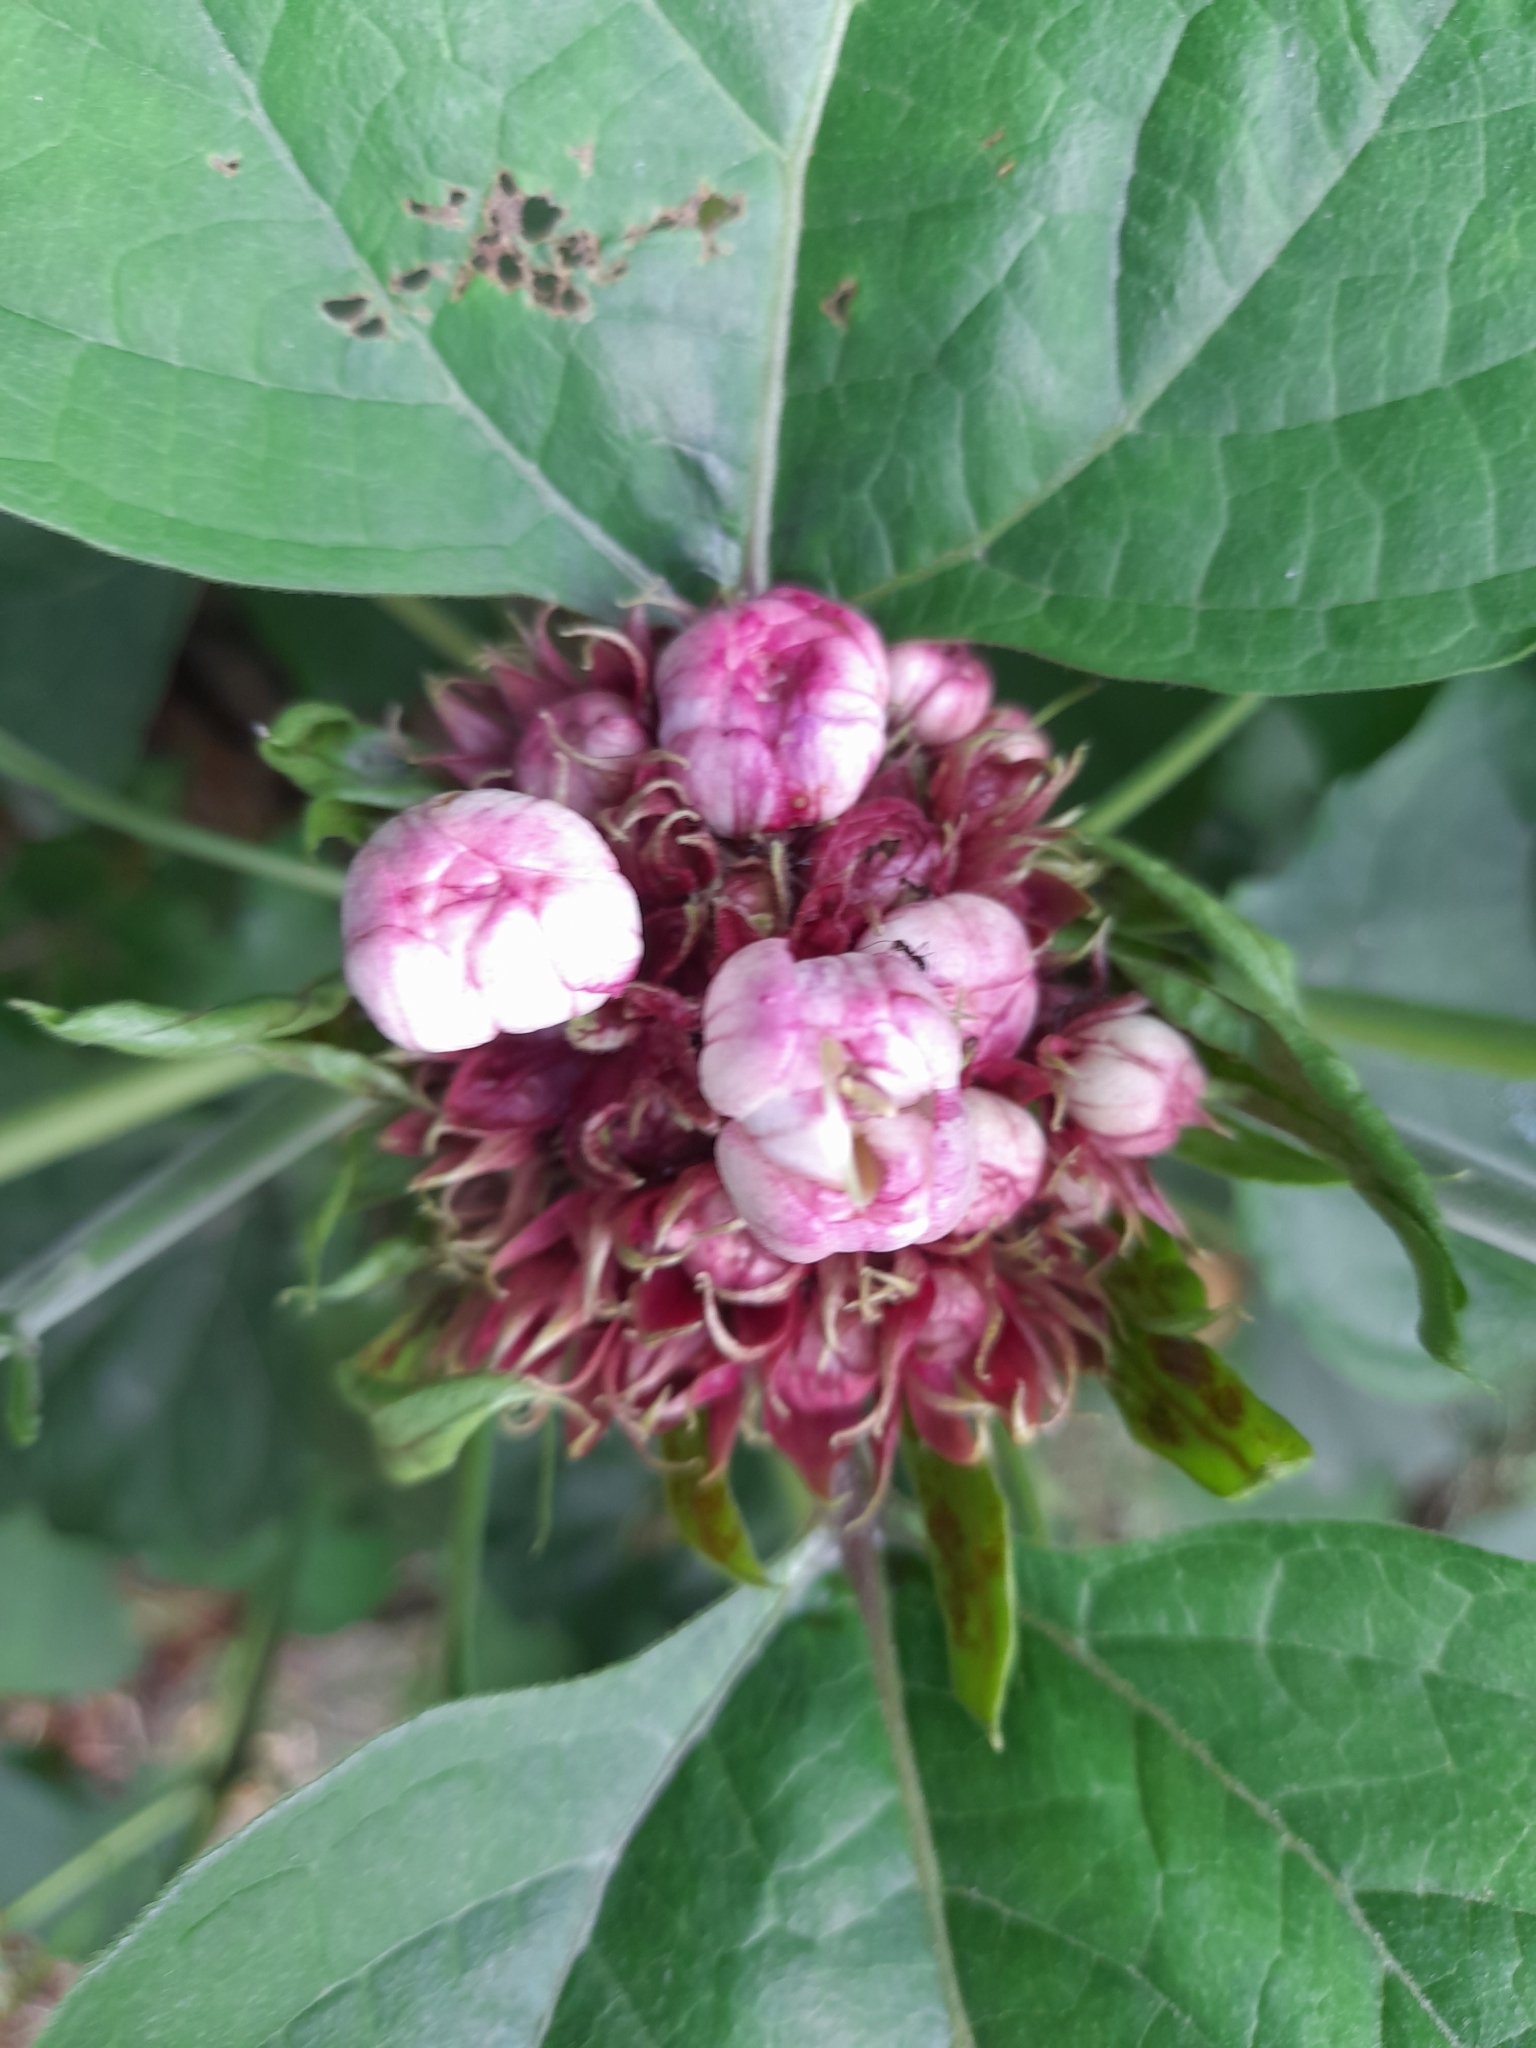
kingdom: Plantae
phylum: Tracheophyta
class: Magnoliopsida
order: Lamiales
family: Lamiaceae
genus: Clerodendrum
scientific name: Clerodendrum chinense
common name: Stickbush
